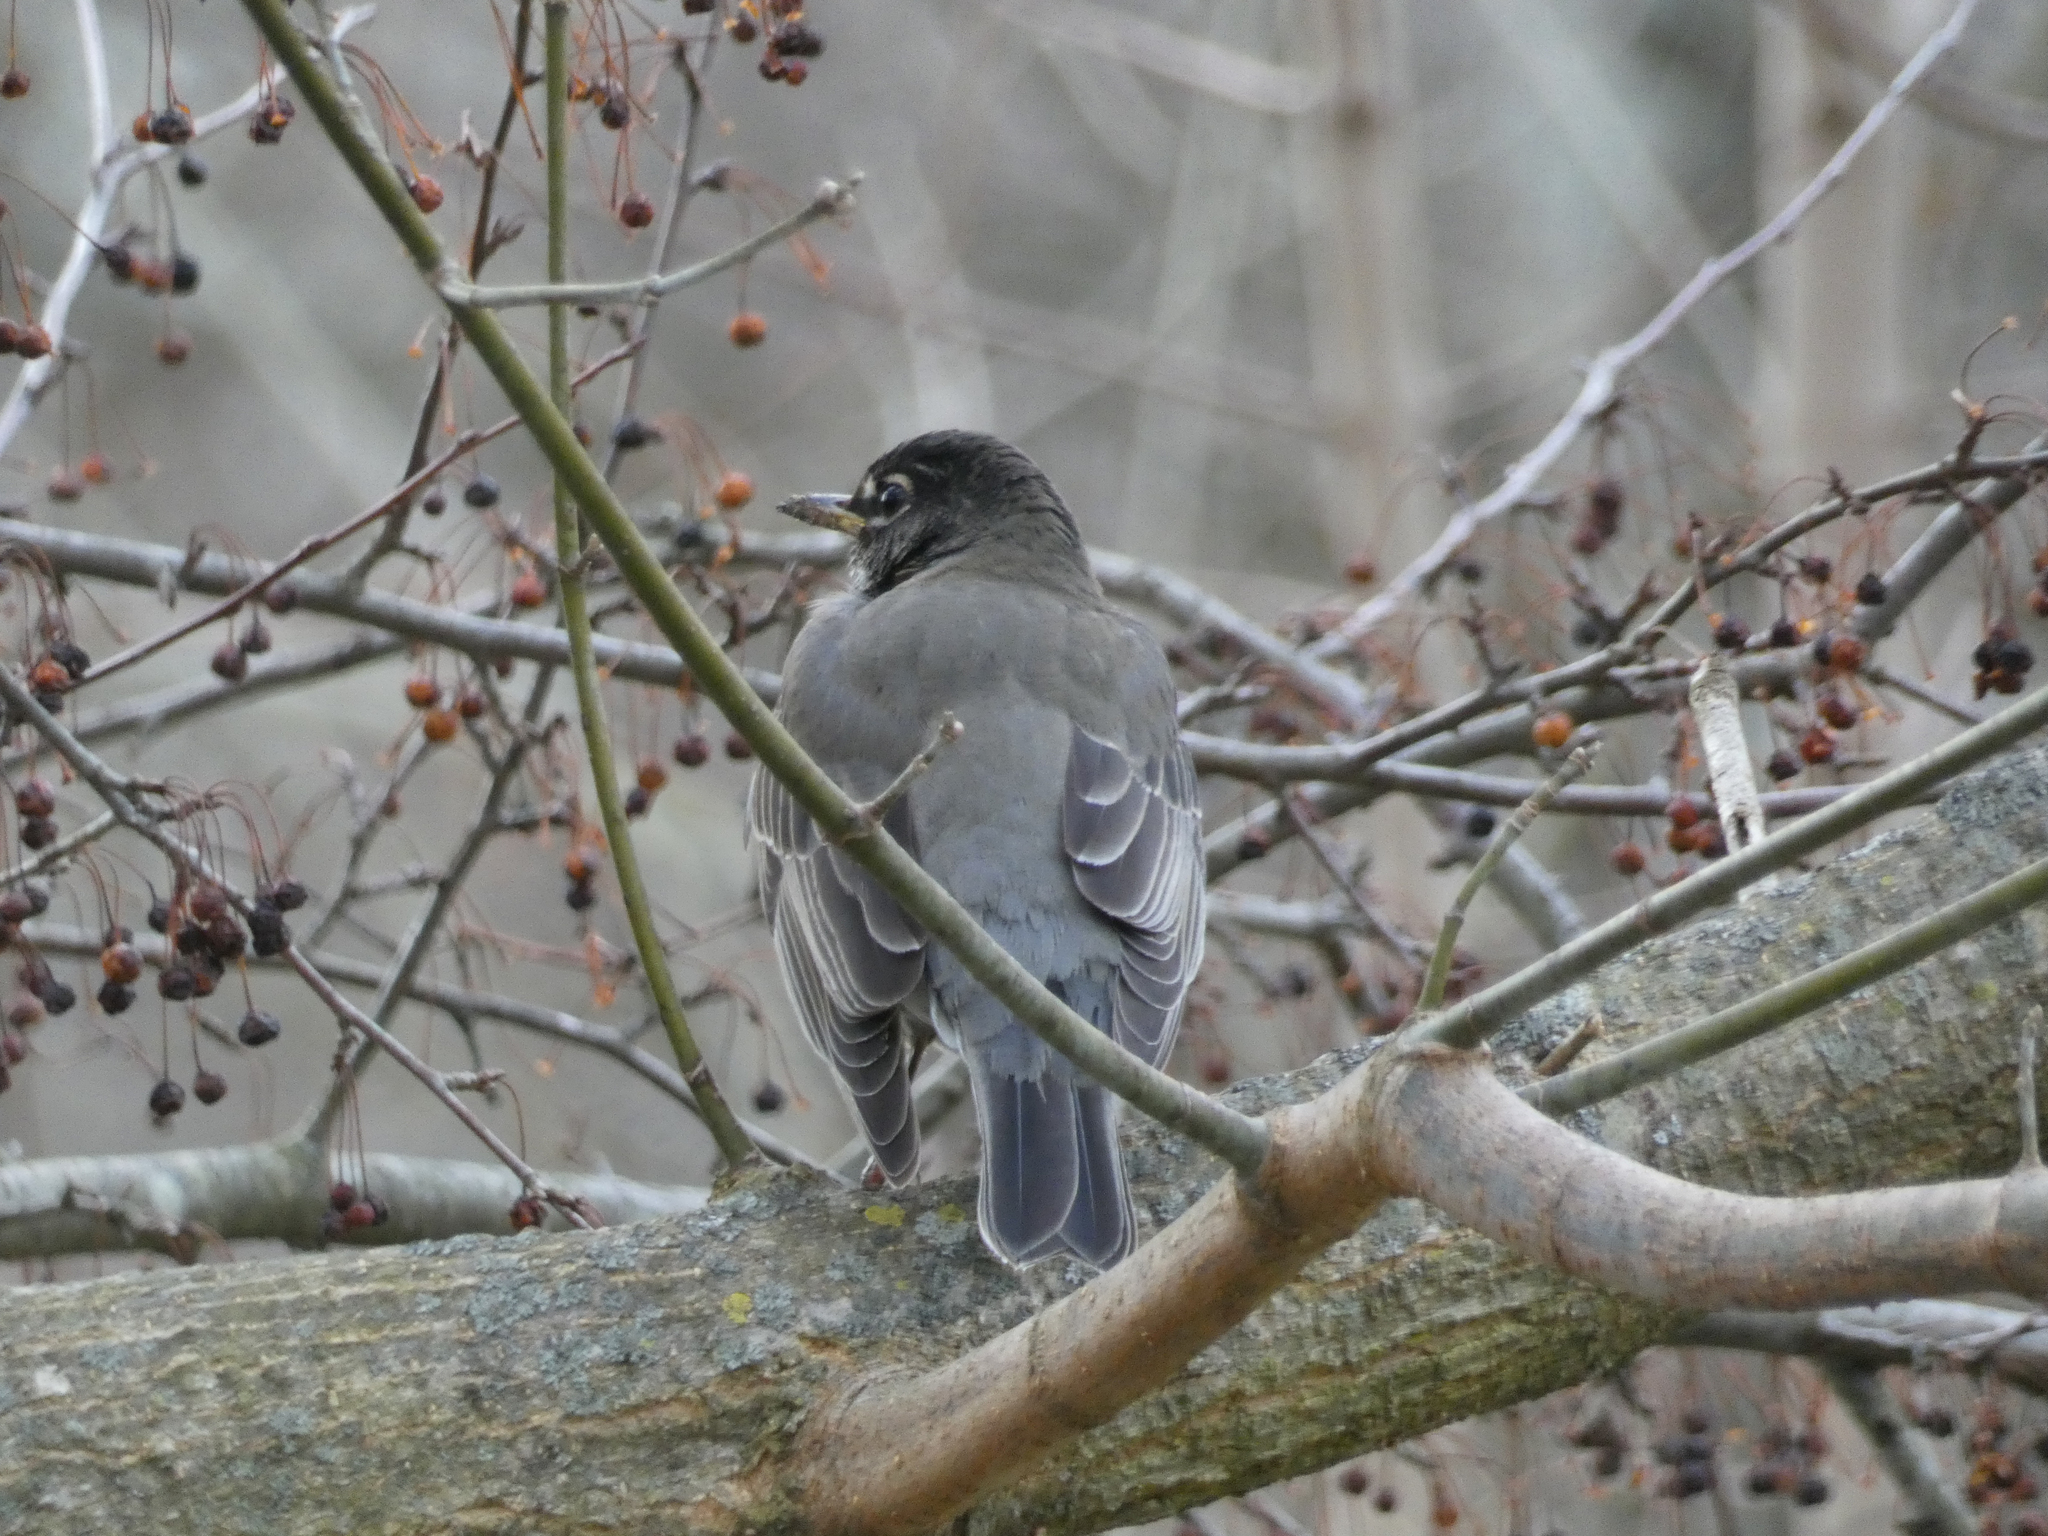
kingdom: Animalia
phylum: Chordata
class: Aves
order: Passeriformes
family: Turdidae
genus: Turdus
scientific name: Turdus migratorius
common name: American robin
